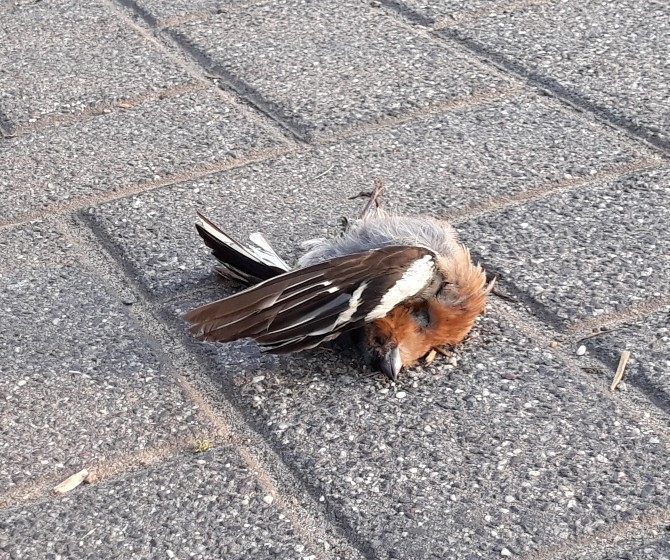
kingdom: Animalia
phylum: Chordata
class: Aves
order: Passeriformes
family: Fringillidae
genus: Fringilla
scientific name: Fringilla coelebs
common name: Common chaffinch
